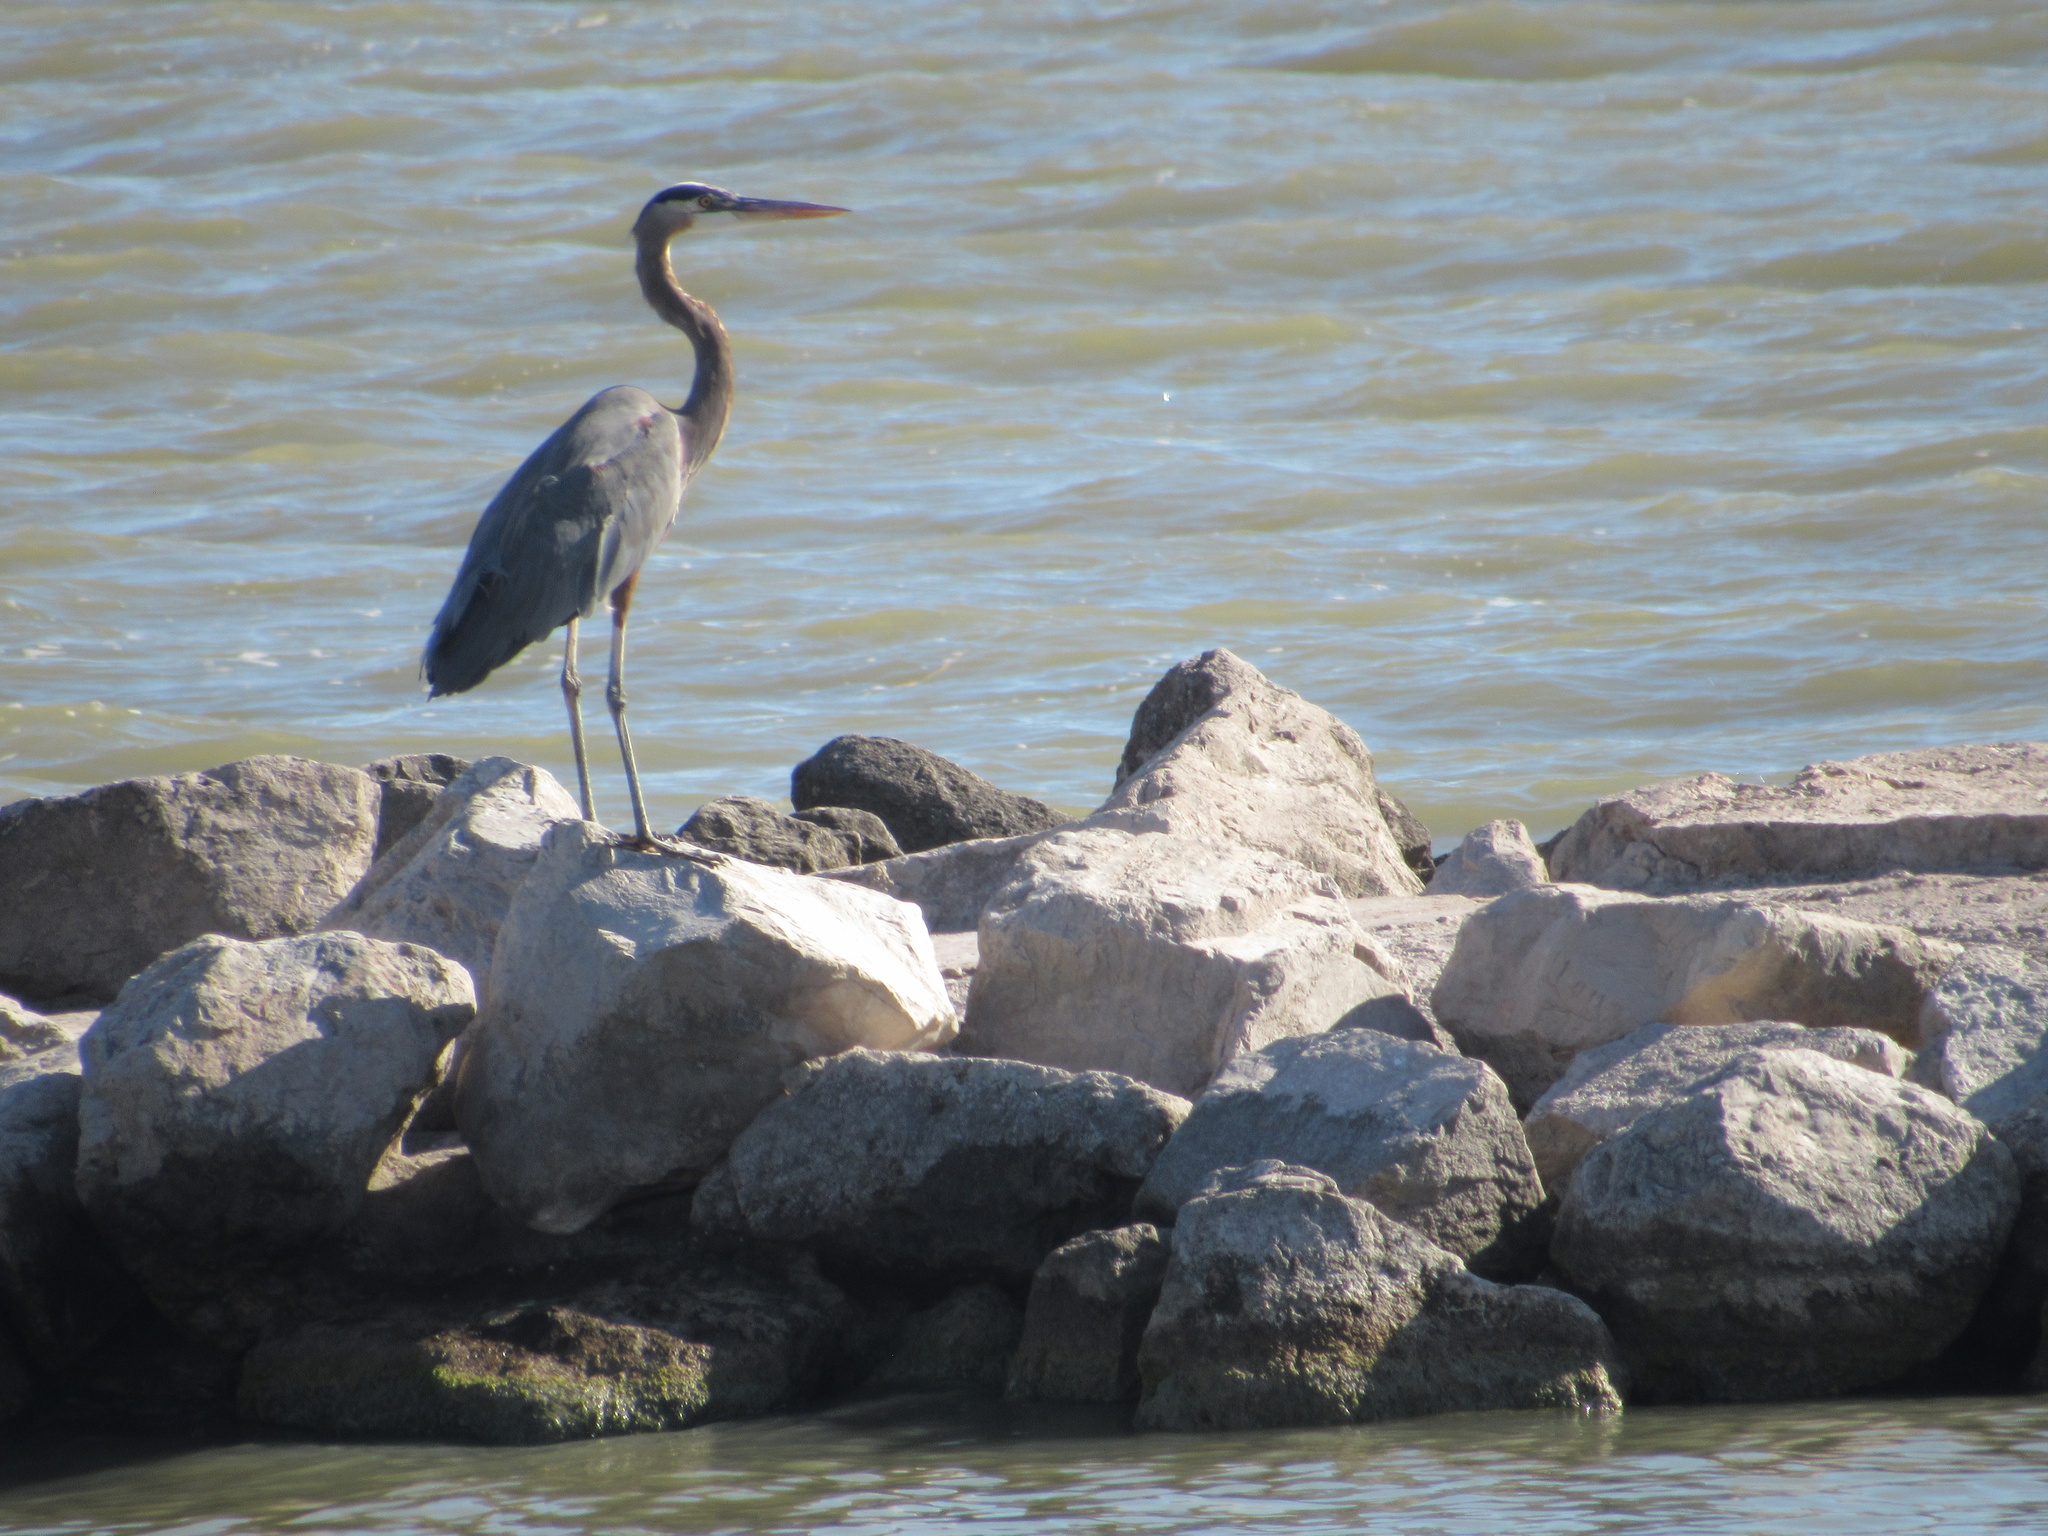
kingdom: Animalia
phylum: Chordata
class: Aves
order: Pelecaniformes
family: Ardeidae
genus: Ardea
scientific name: Ardea herodias
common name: Great blue heron
